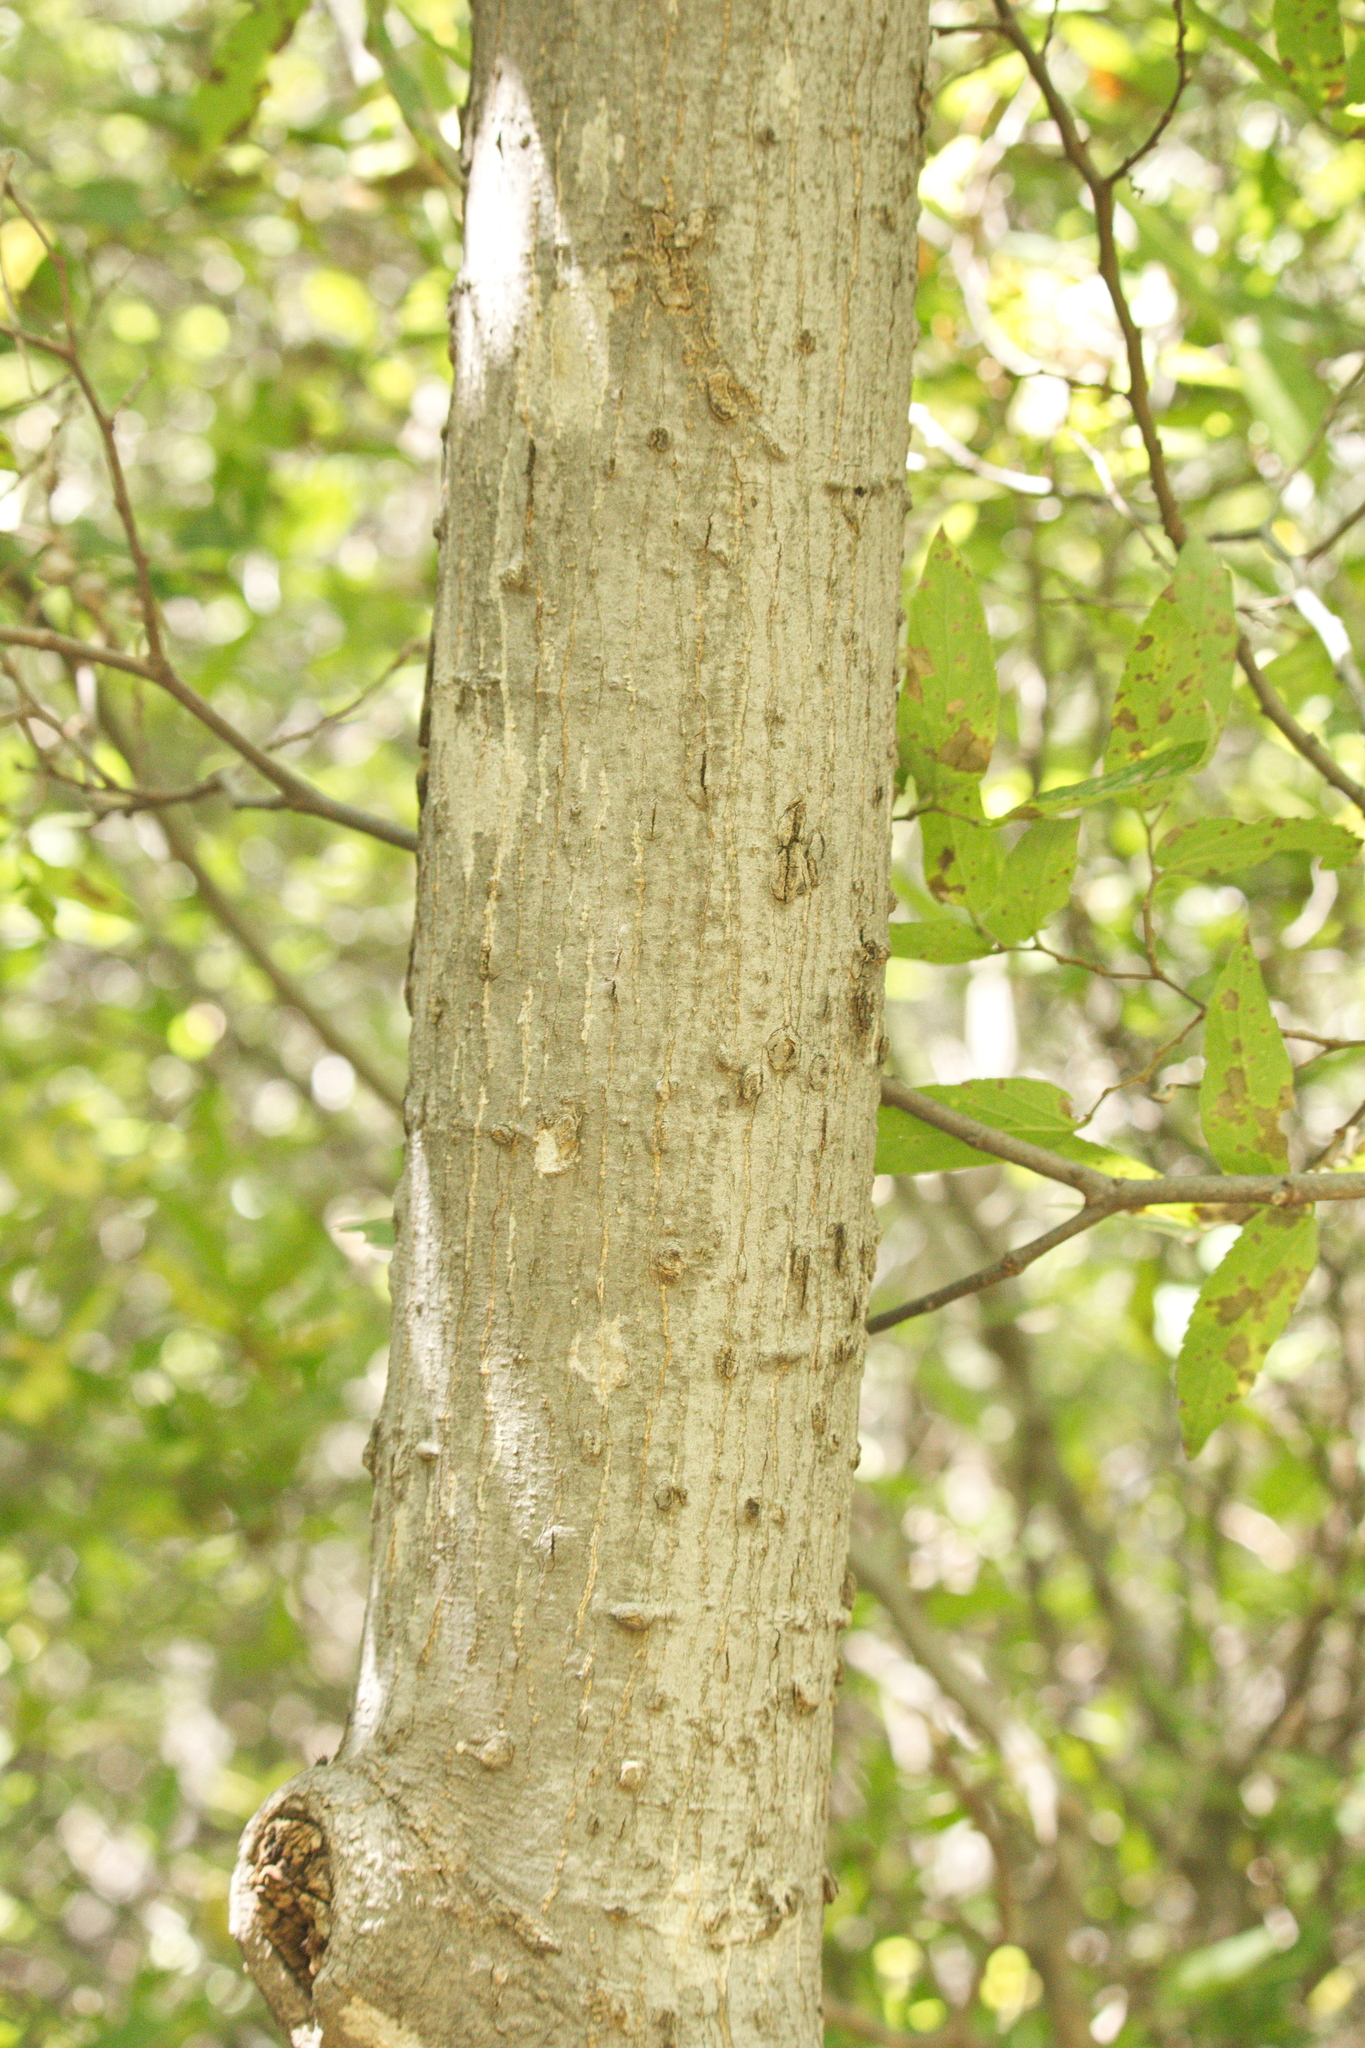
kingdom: Plantae
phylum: Tracheophyta
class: Magnoliopsida
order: Rosales
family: Cannabaceae
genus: Celtis
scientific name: Celtis reticulata
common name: Netleaf hackberry
